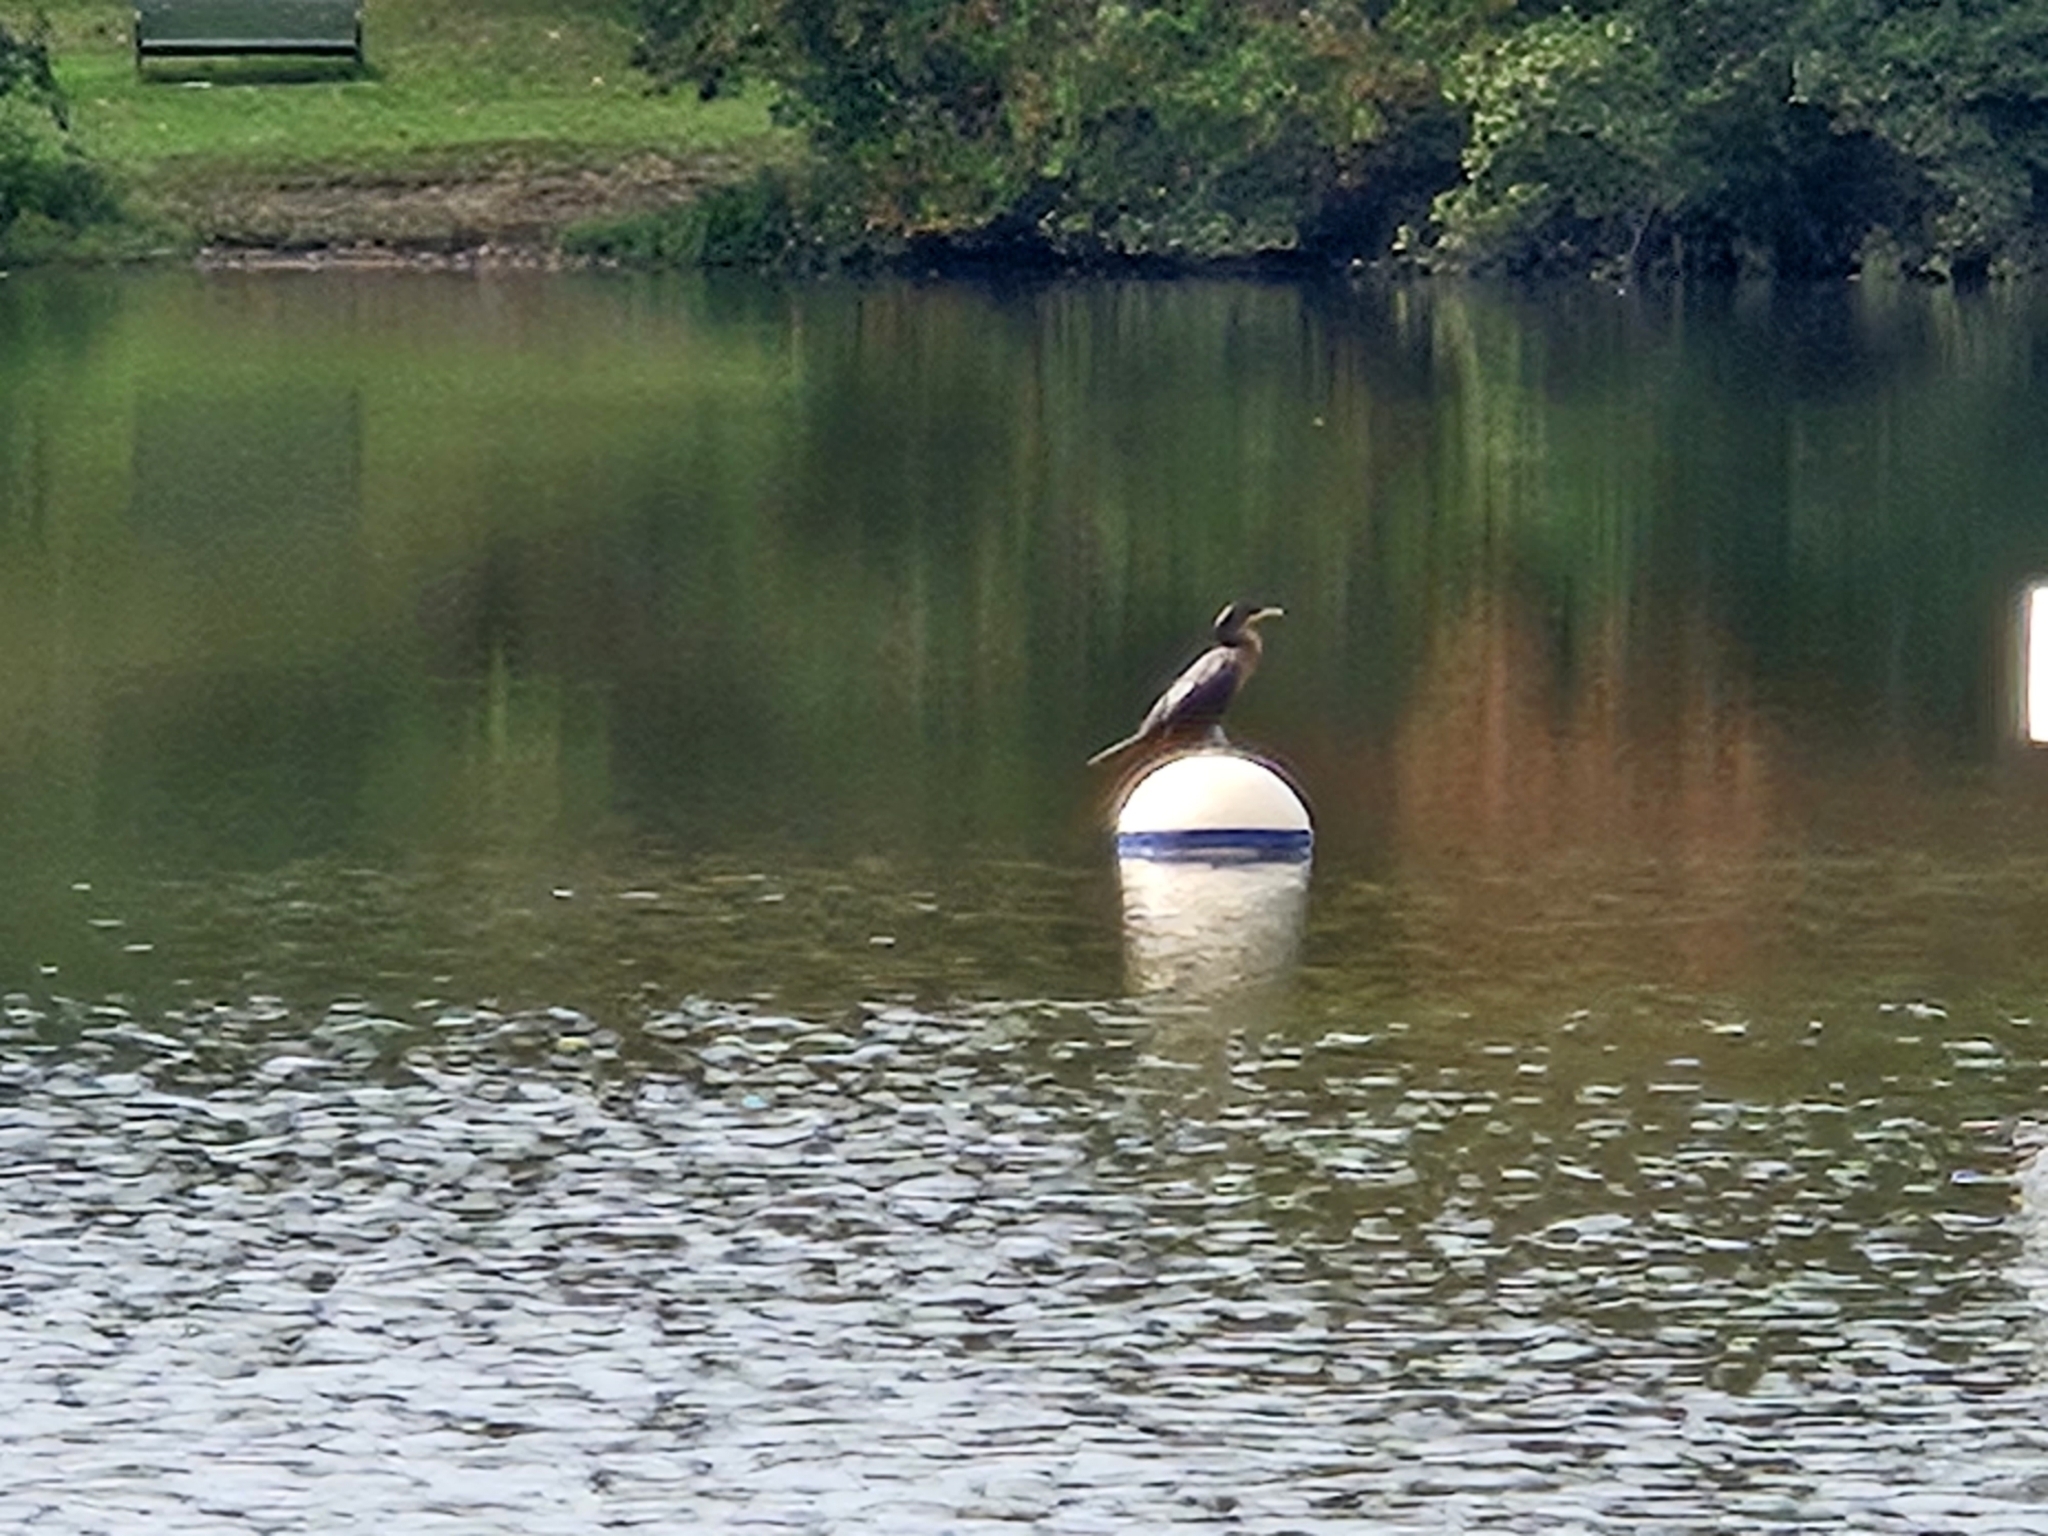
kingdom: Animalia
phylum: Chordata
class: Aves
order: Suliformes
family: Phalacrocoracidae
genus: Phalacrocorax
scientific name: Phalacrocorax auritus
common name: Double-crested cormorant
